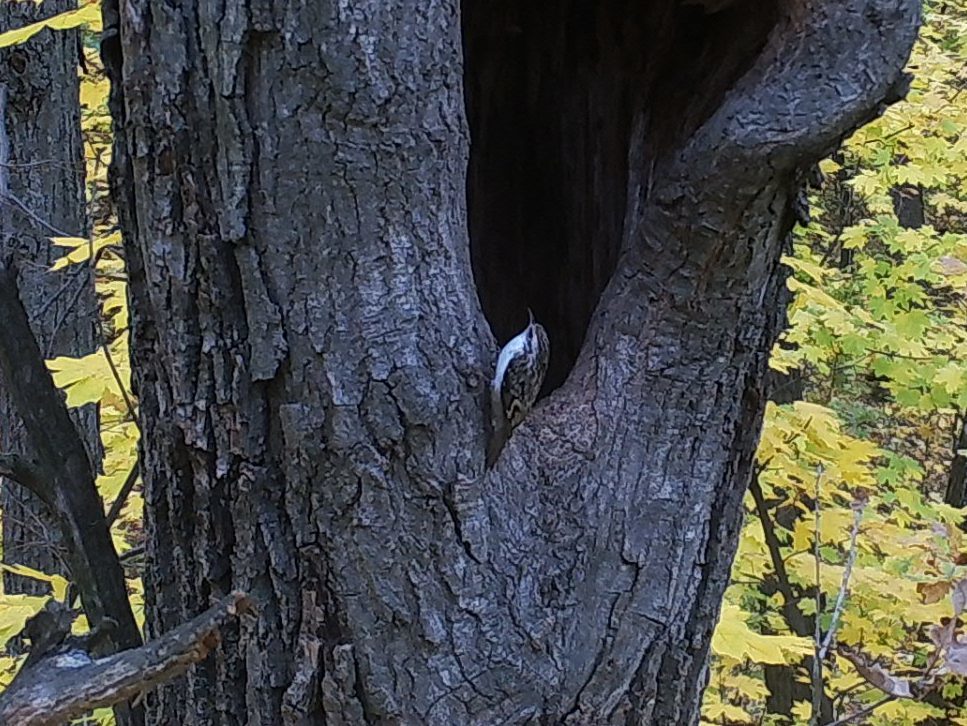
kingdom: Animalia
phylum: Chordata
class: Aves
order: Passeriformes
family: Certhiidae
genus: Certhia
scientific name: Certhia familiaris
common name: Eurasian treecreeper
